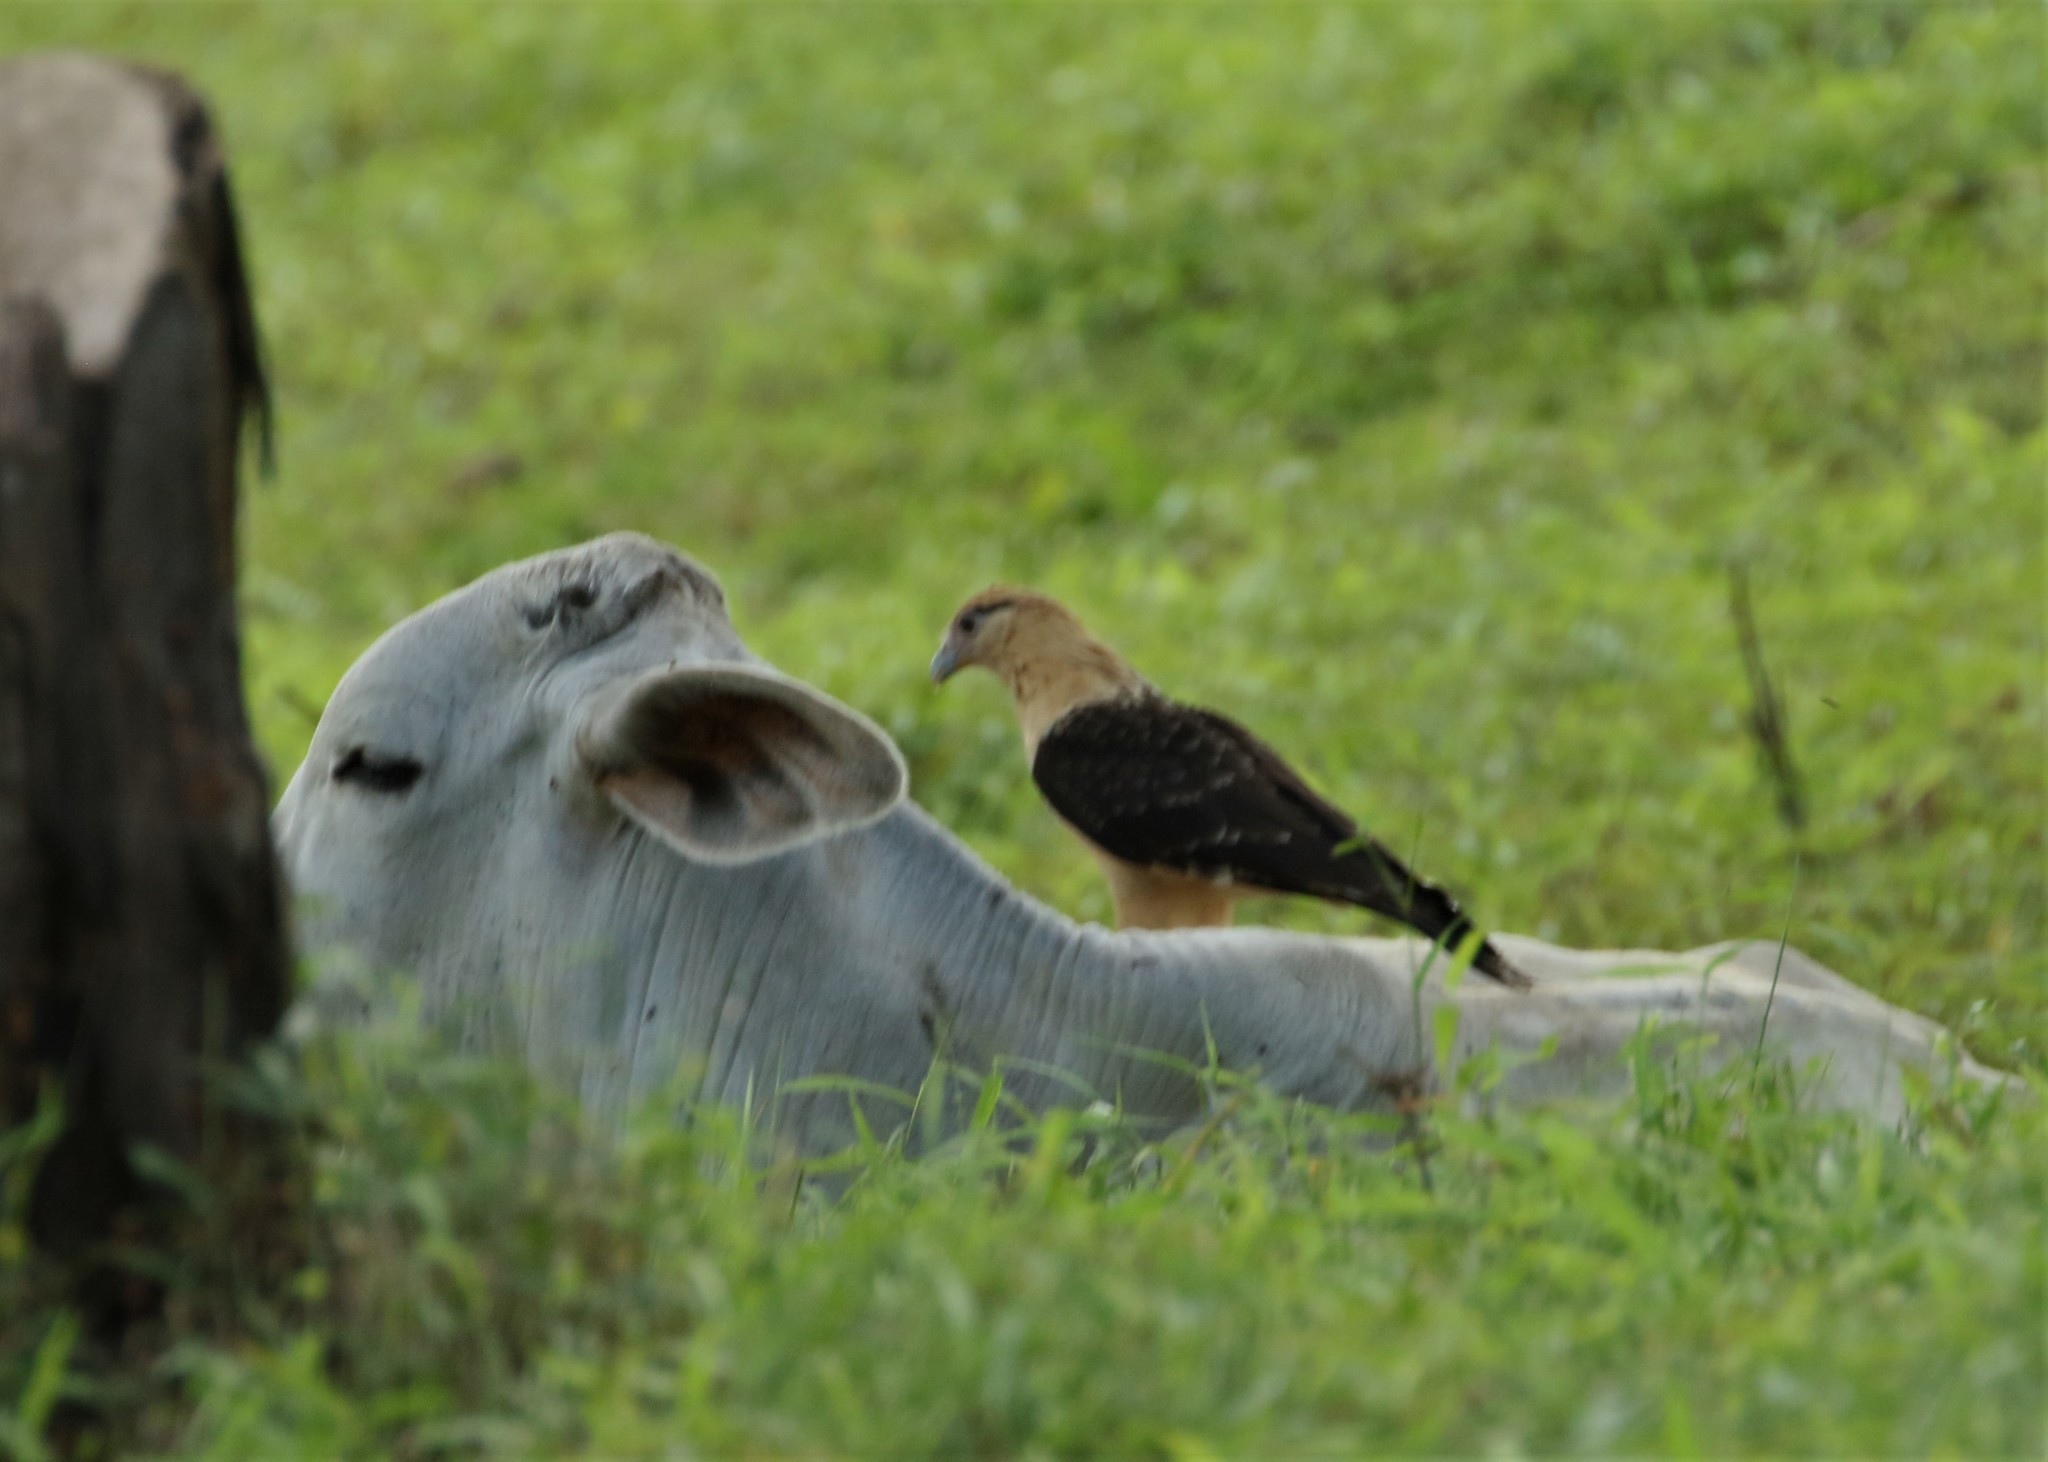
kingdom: Animalia
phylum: Chordata
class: Aves
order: Falconiformes
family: Falconidae
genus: Daptrius
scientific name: Daptrius
